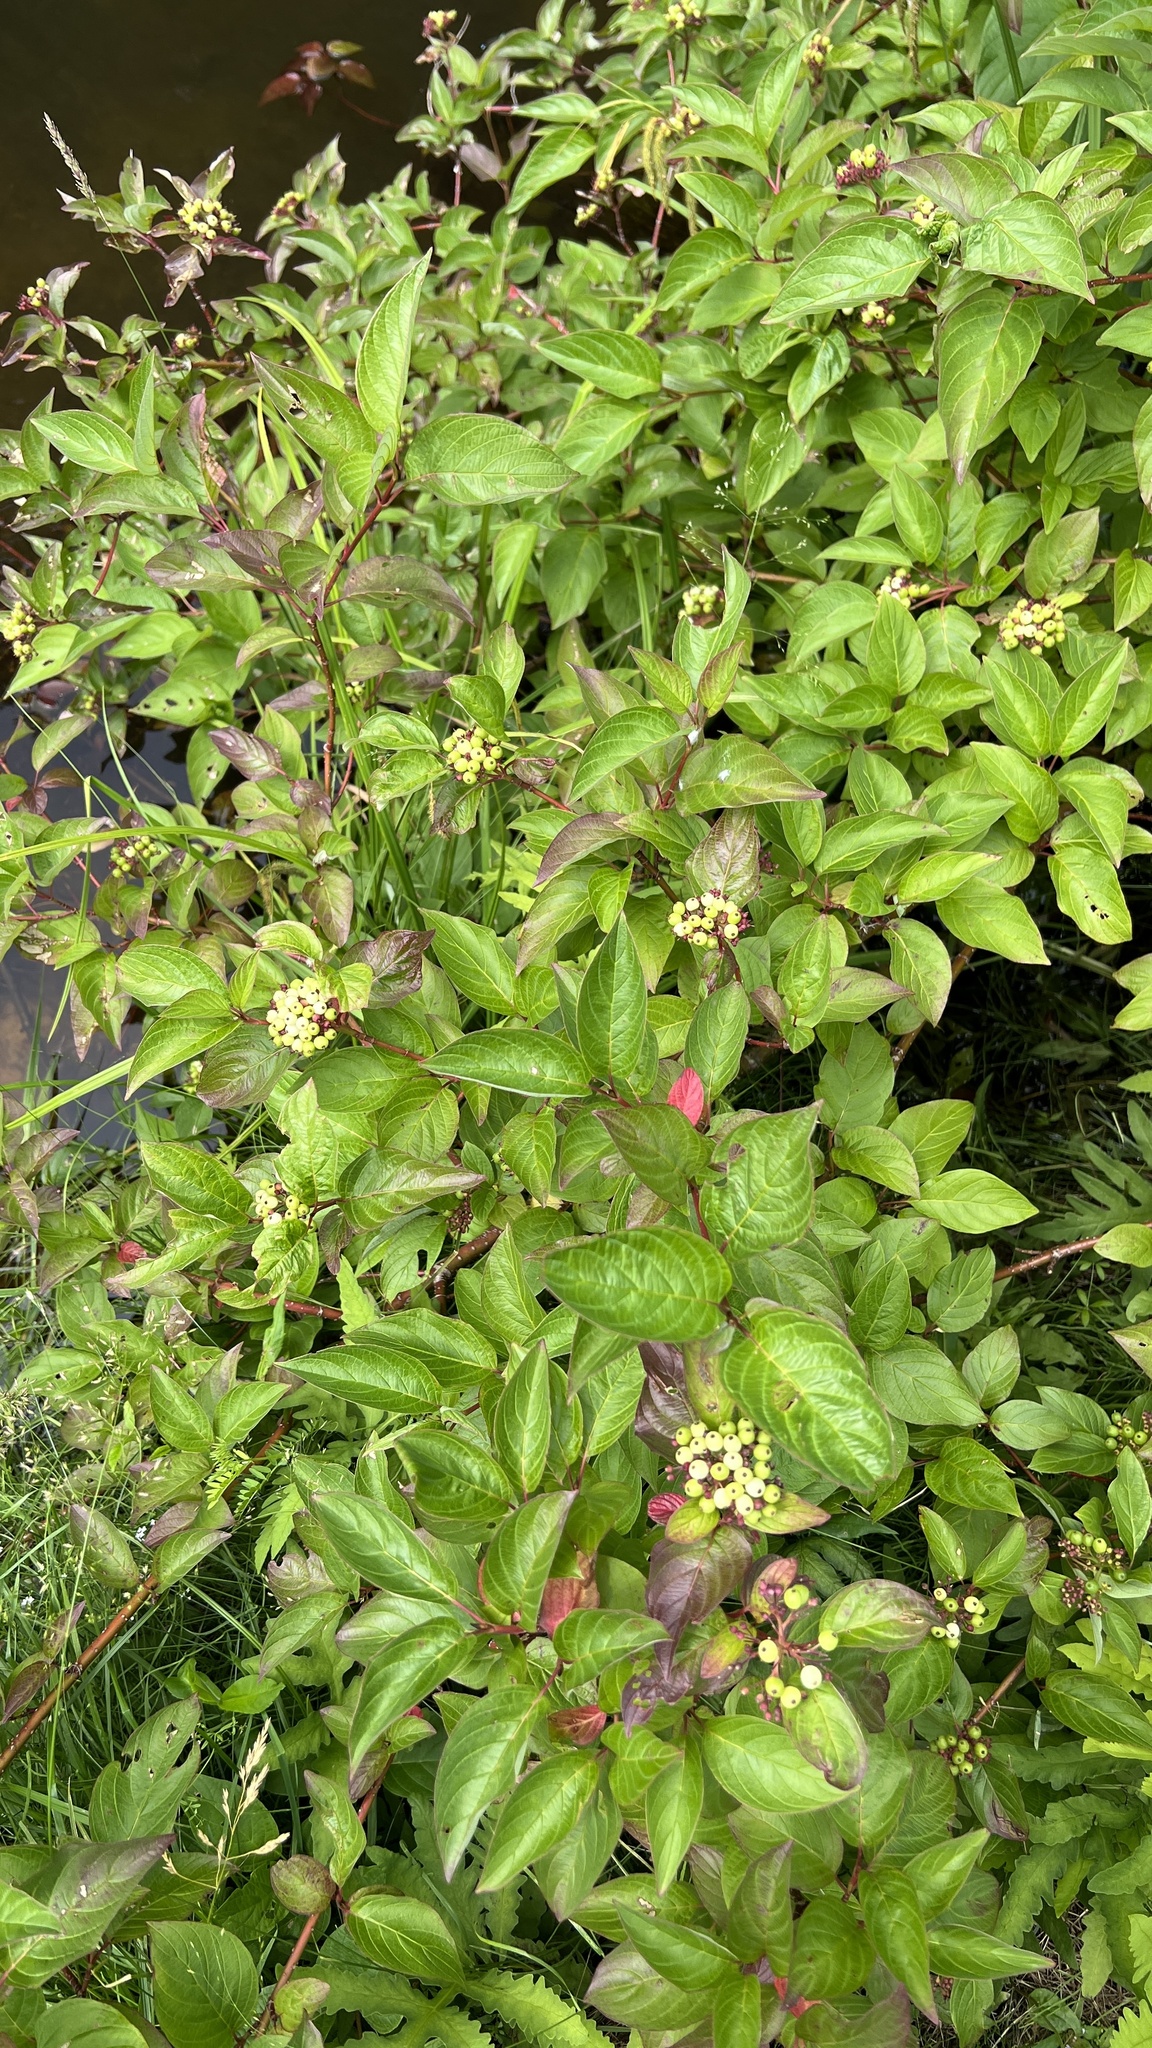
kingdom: Plantae
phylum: Tracheophyta
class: Magnoliopsida
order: Cornales
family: Cornaceae
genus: Cornus
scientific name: Cornus sericea
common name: Red-osier dogwood
